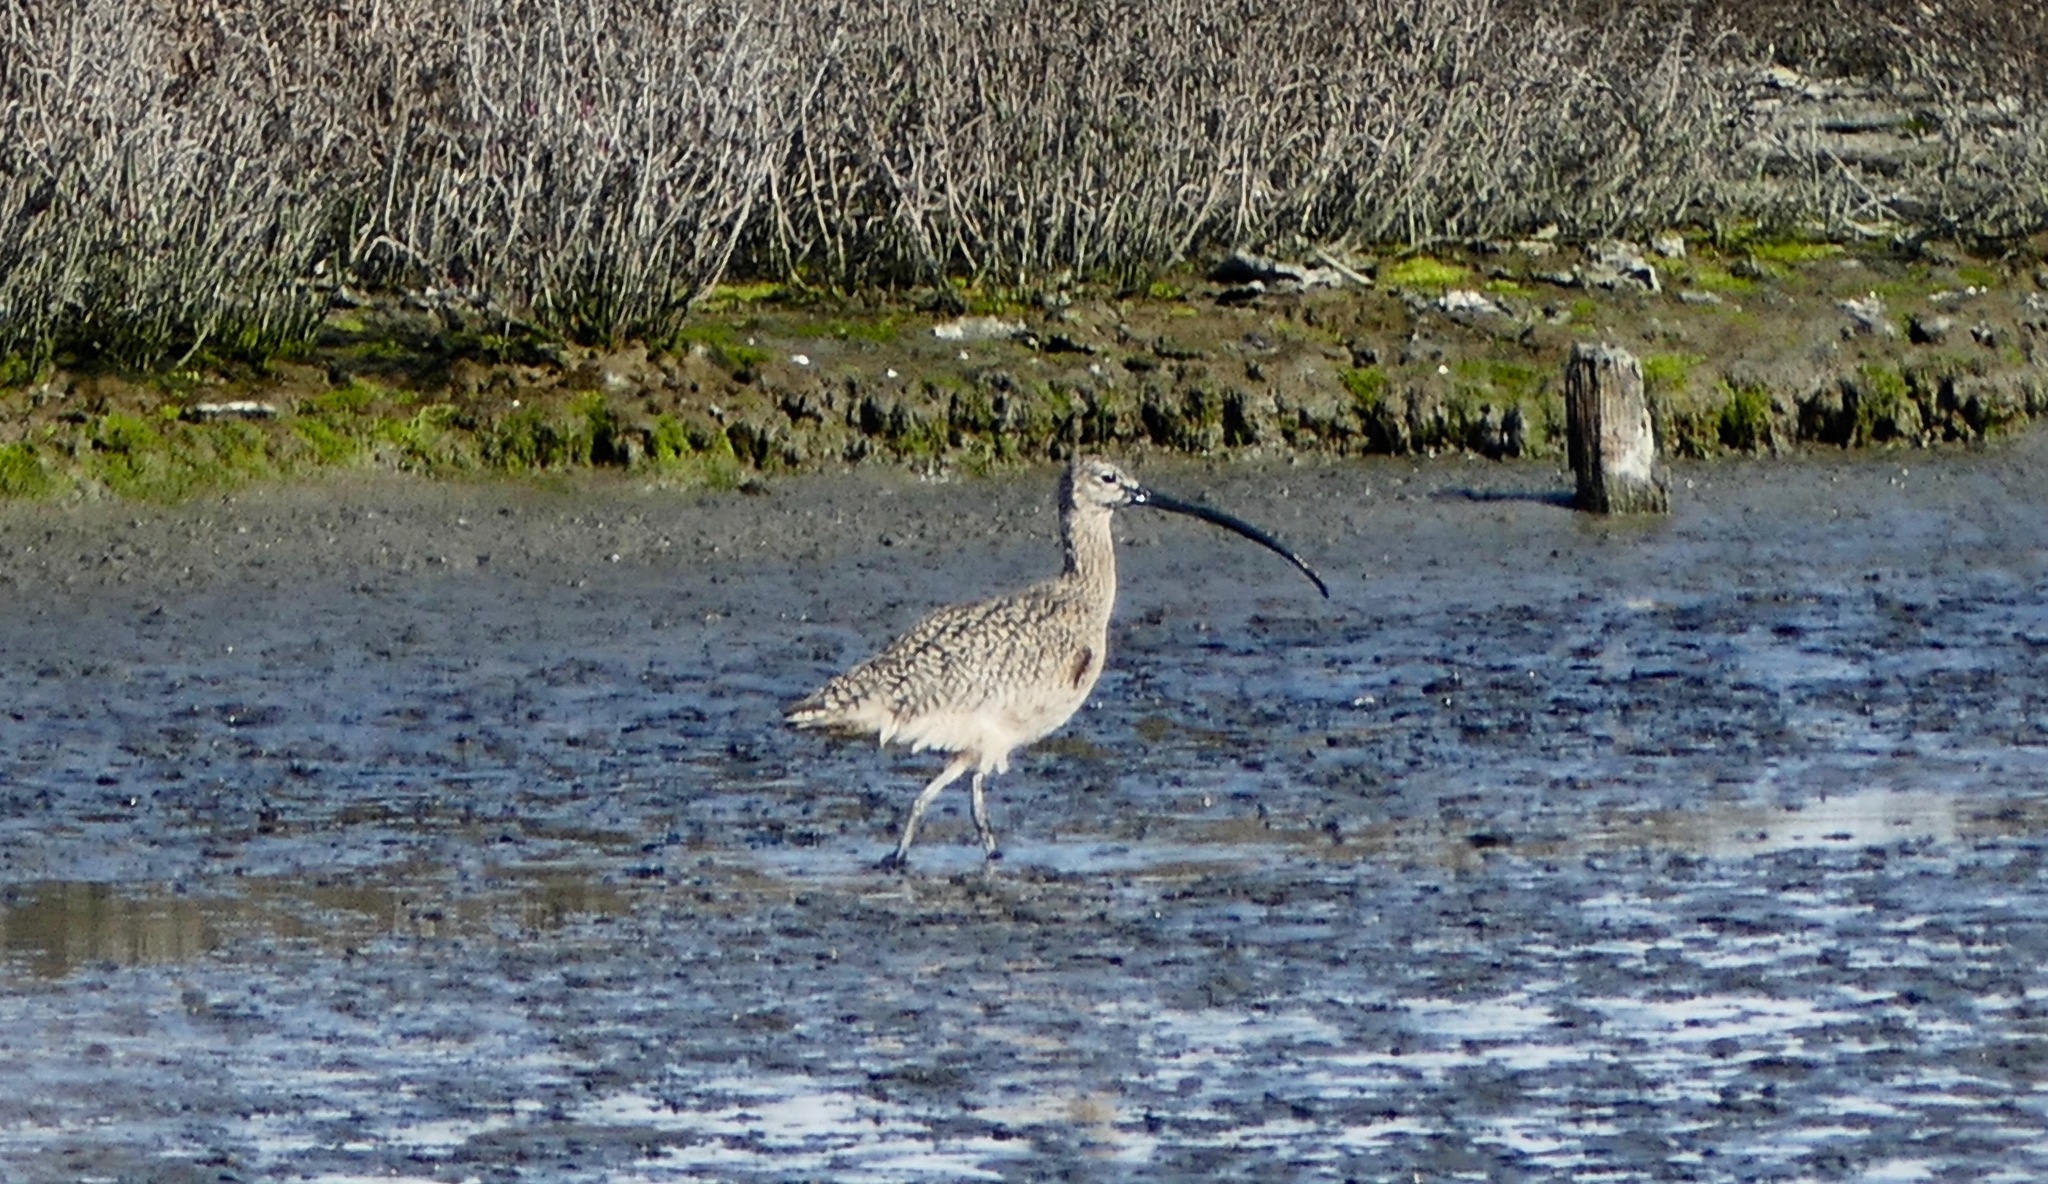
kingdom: Animalia
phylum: Chordata
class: Aves
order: Charadriiformes
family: Scolopacidae
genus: Numenius
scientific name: Numenius americanus
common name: Long-billed curlew
